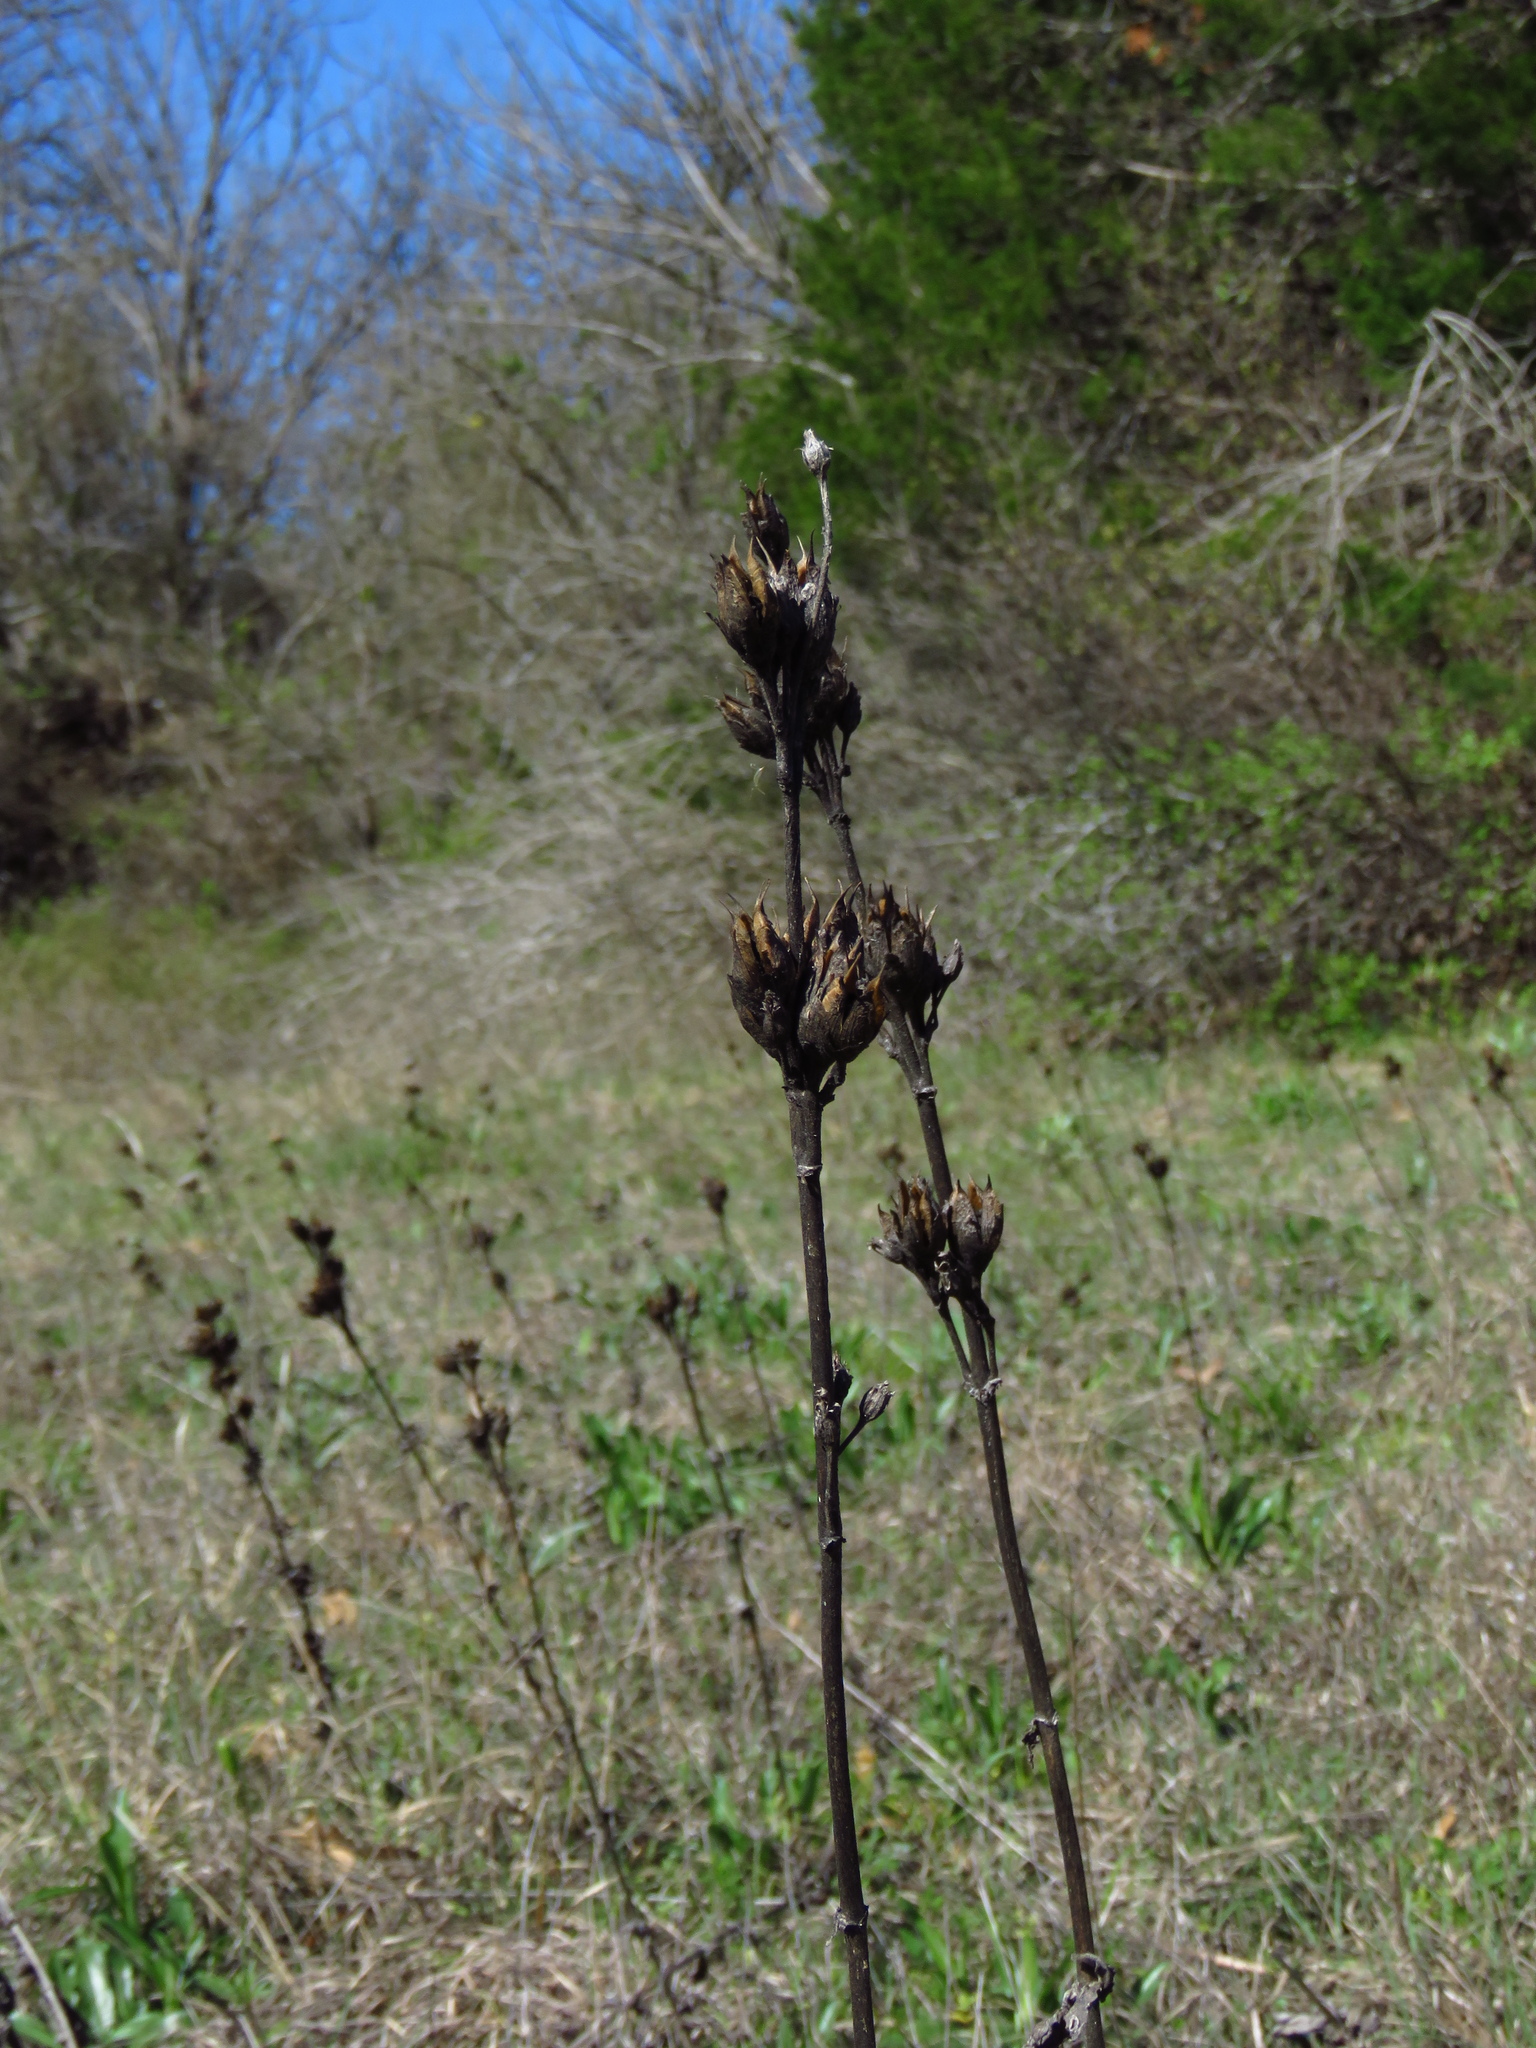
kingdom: Plantae
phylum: Tracheophyta
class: Magnoliopsida
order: Lamiales
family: Plantaginaceae
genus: Penstemon
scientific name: Penstemon cobaea
